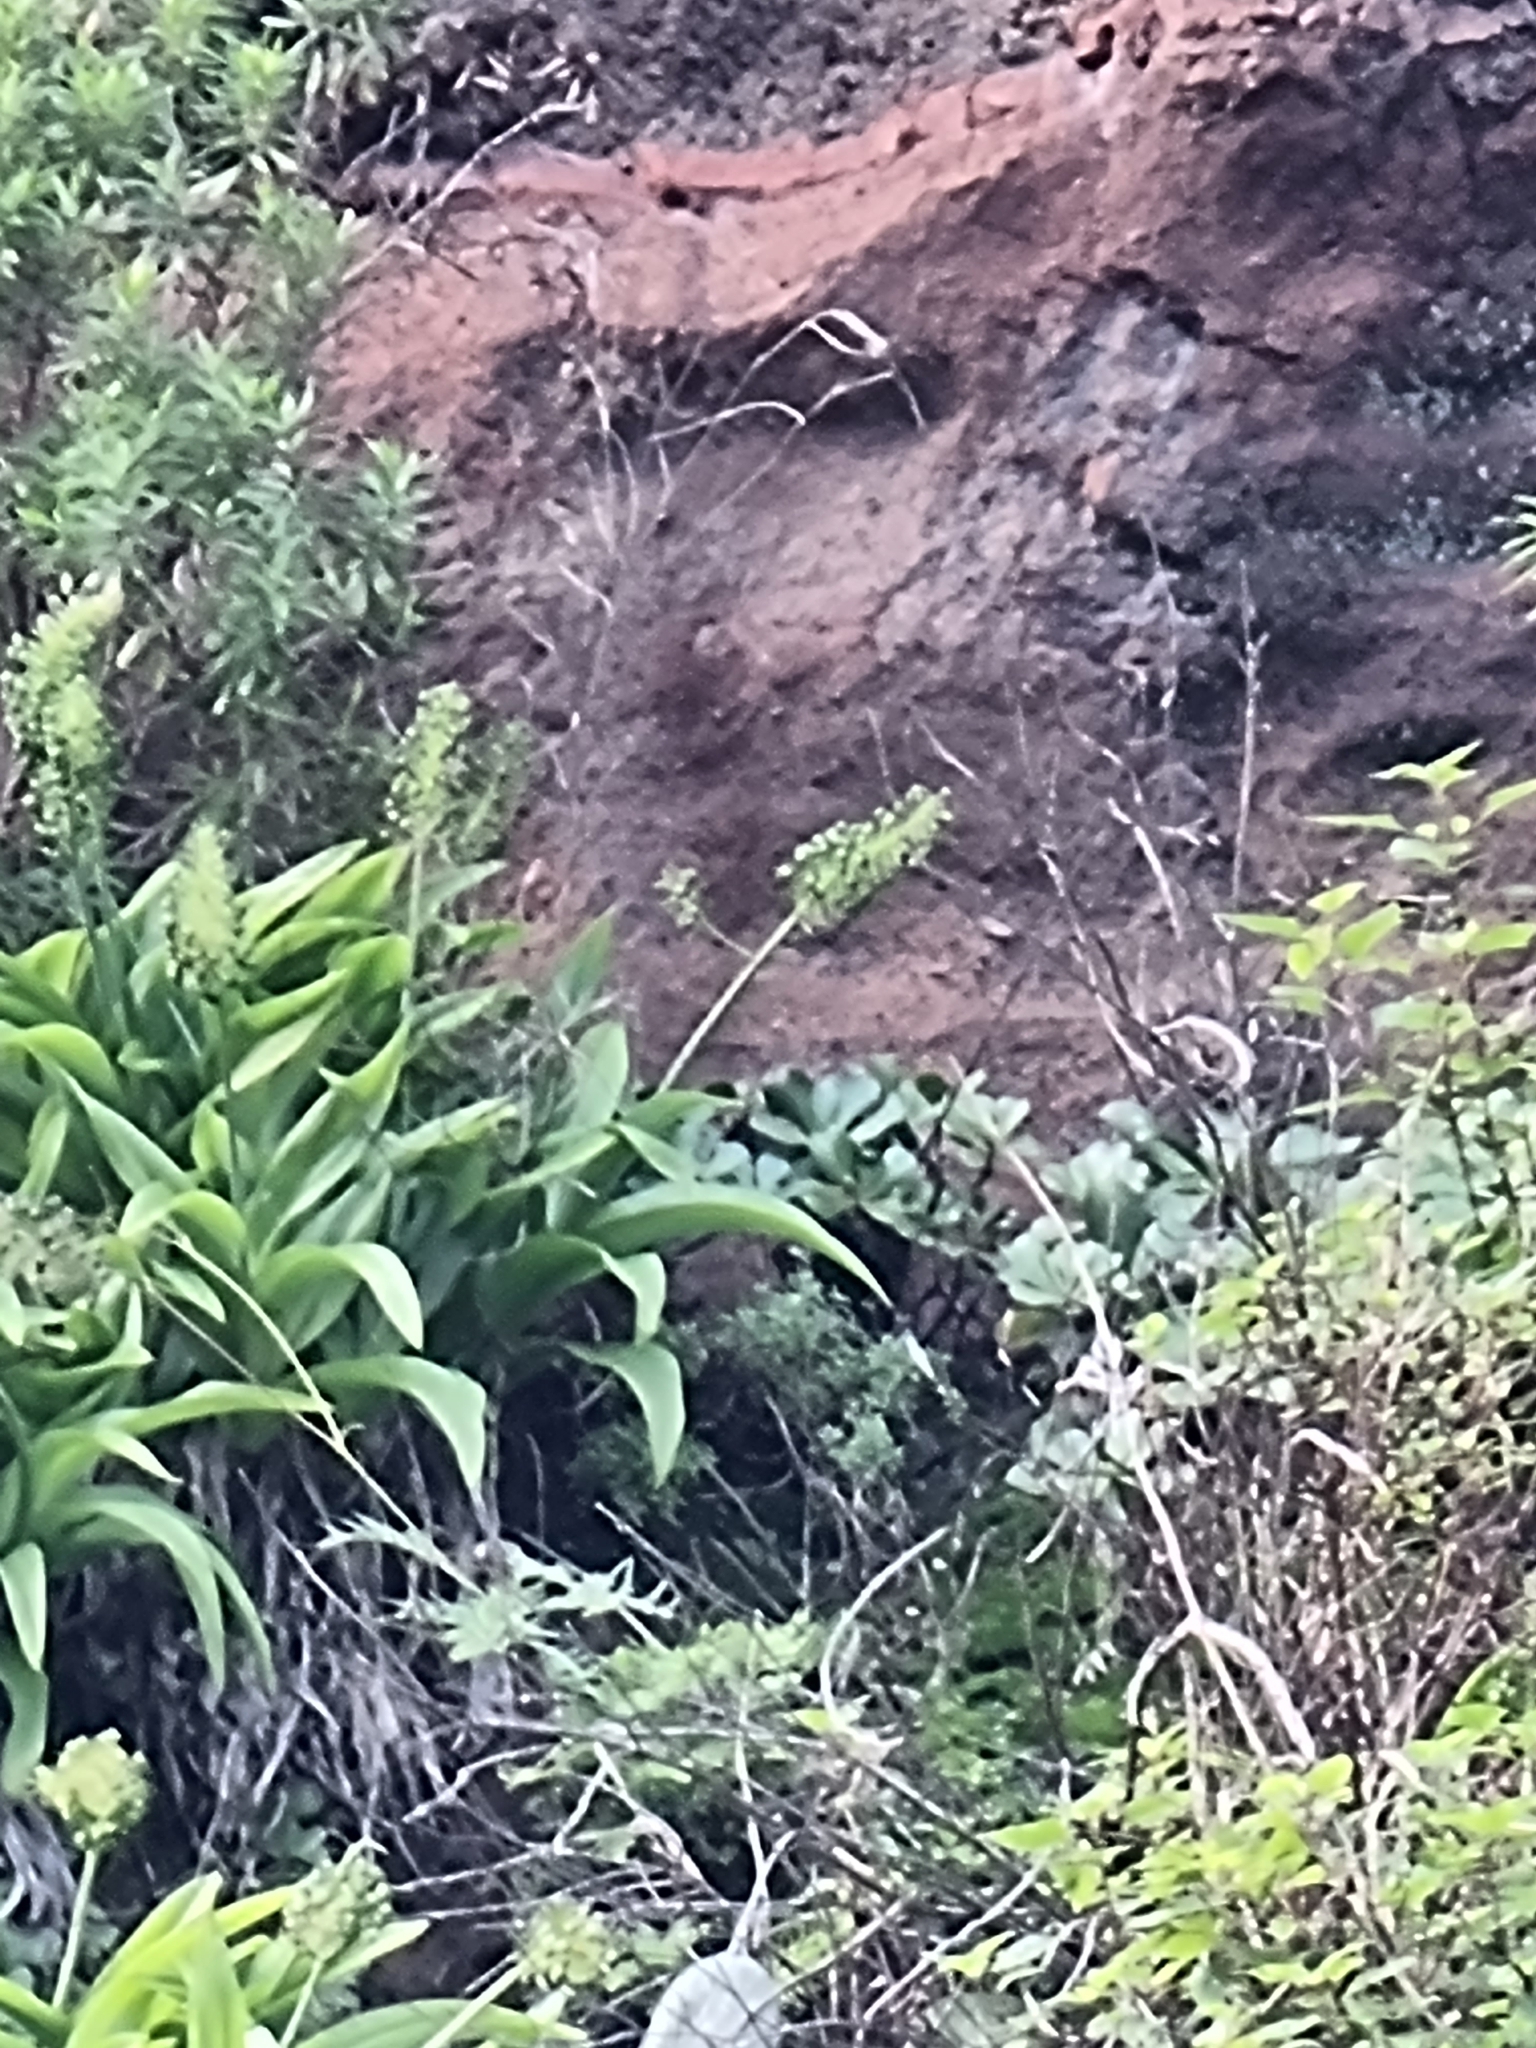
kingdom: Plantae
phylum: Tracheophyta
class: Liliopsida
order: Asparagales
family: Asparagaceae
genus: Scilla
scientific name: Scilla madeirensis
